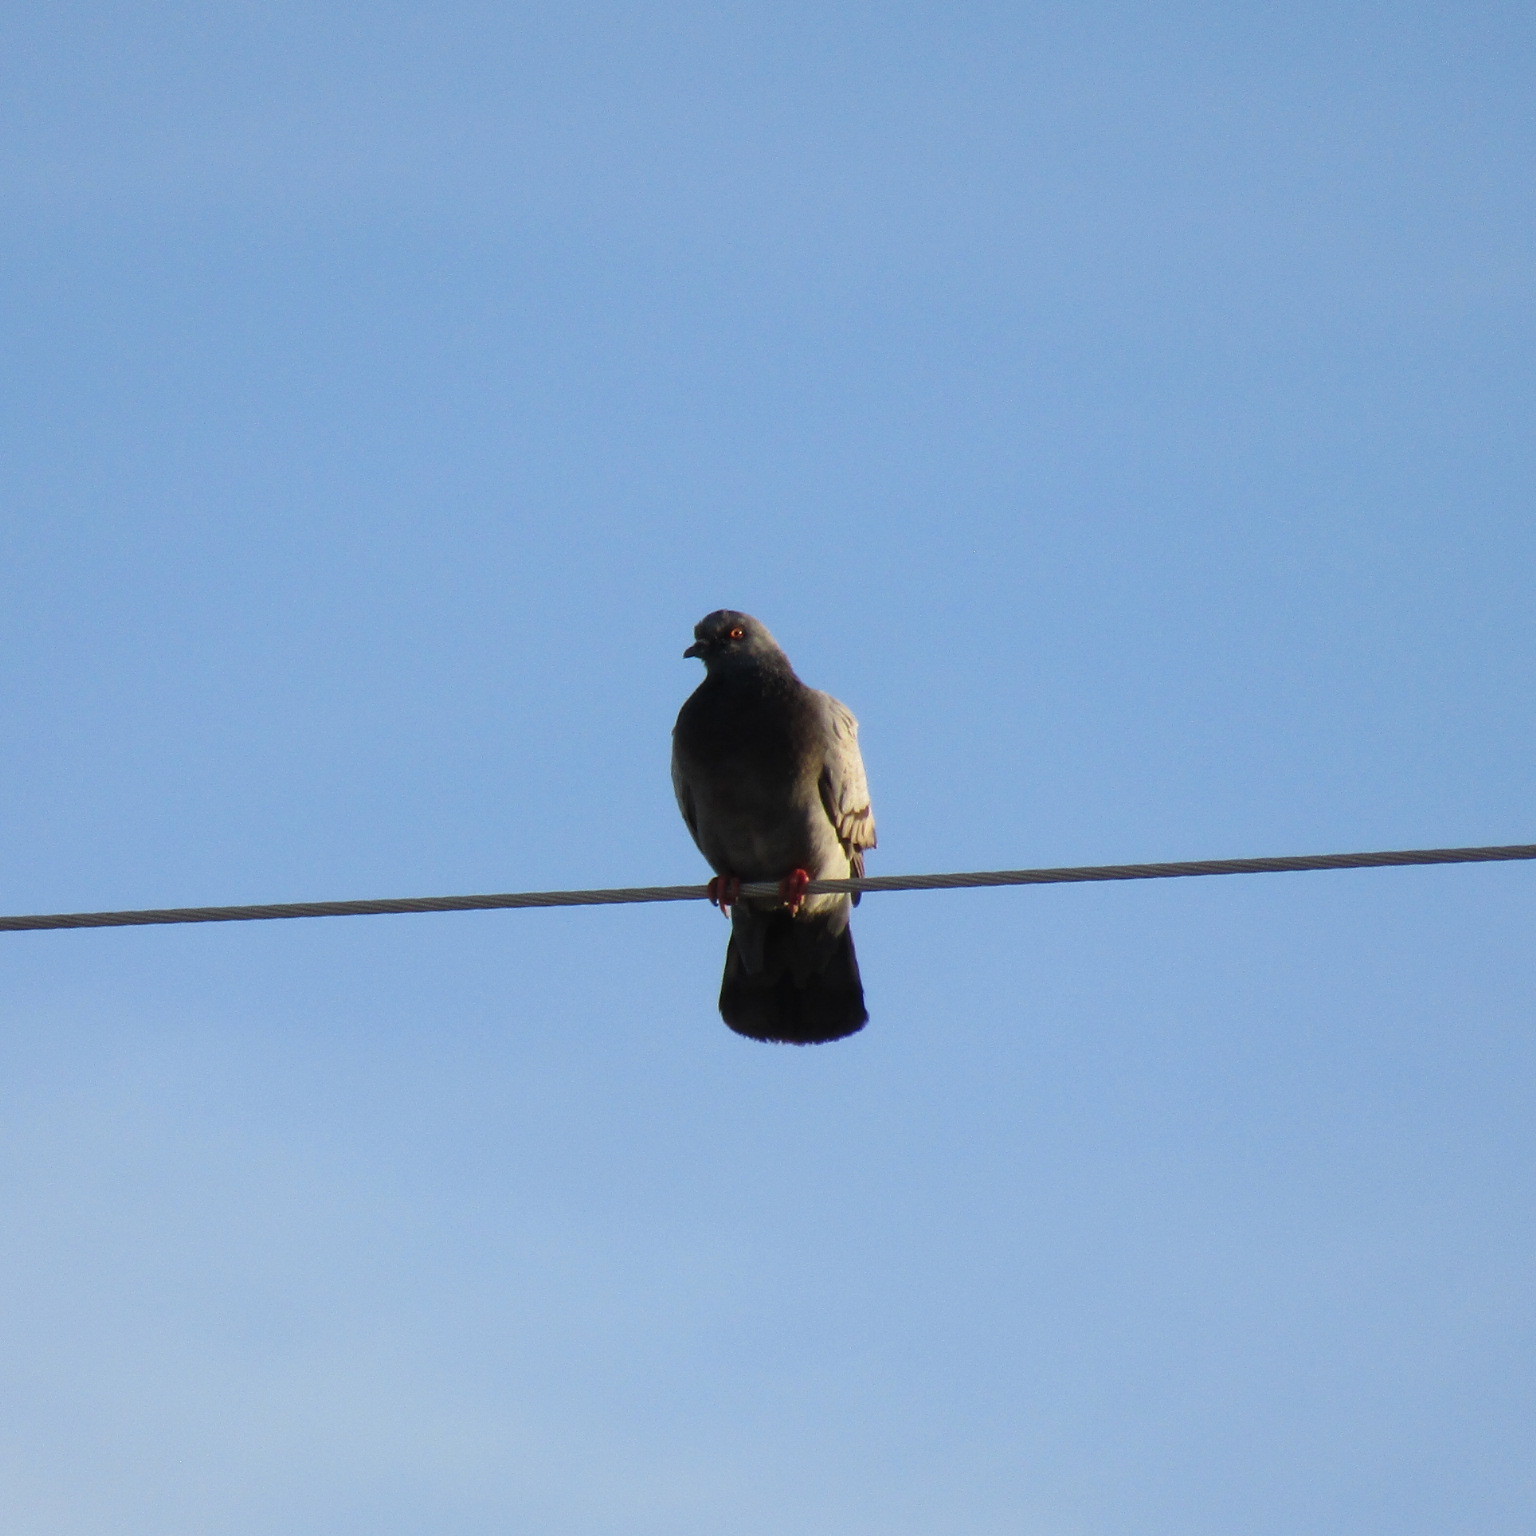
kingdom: Animalia
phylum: Chordata
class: Aves
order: Columbiformes
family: Columbidae
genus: Columba
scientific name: Columba livia
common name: Rock pigeon
